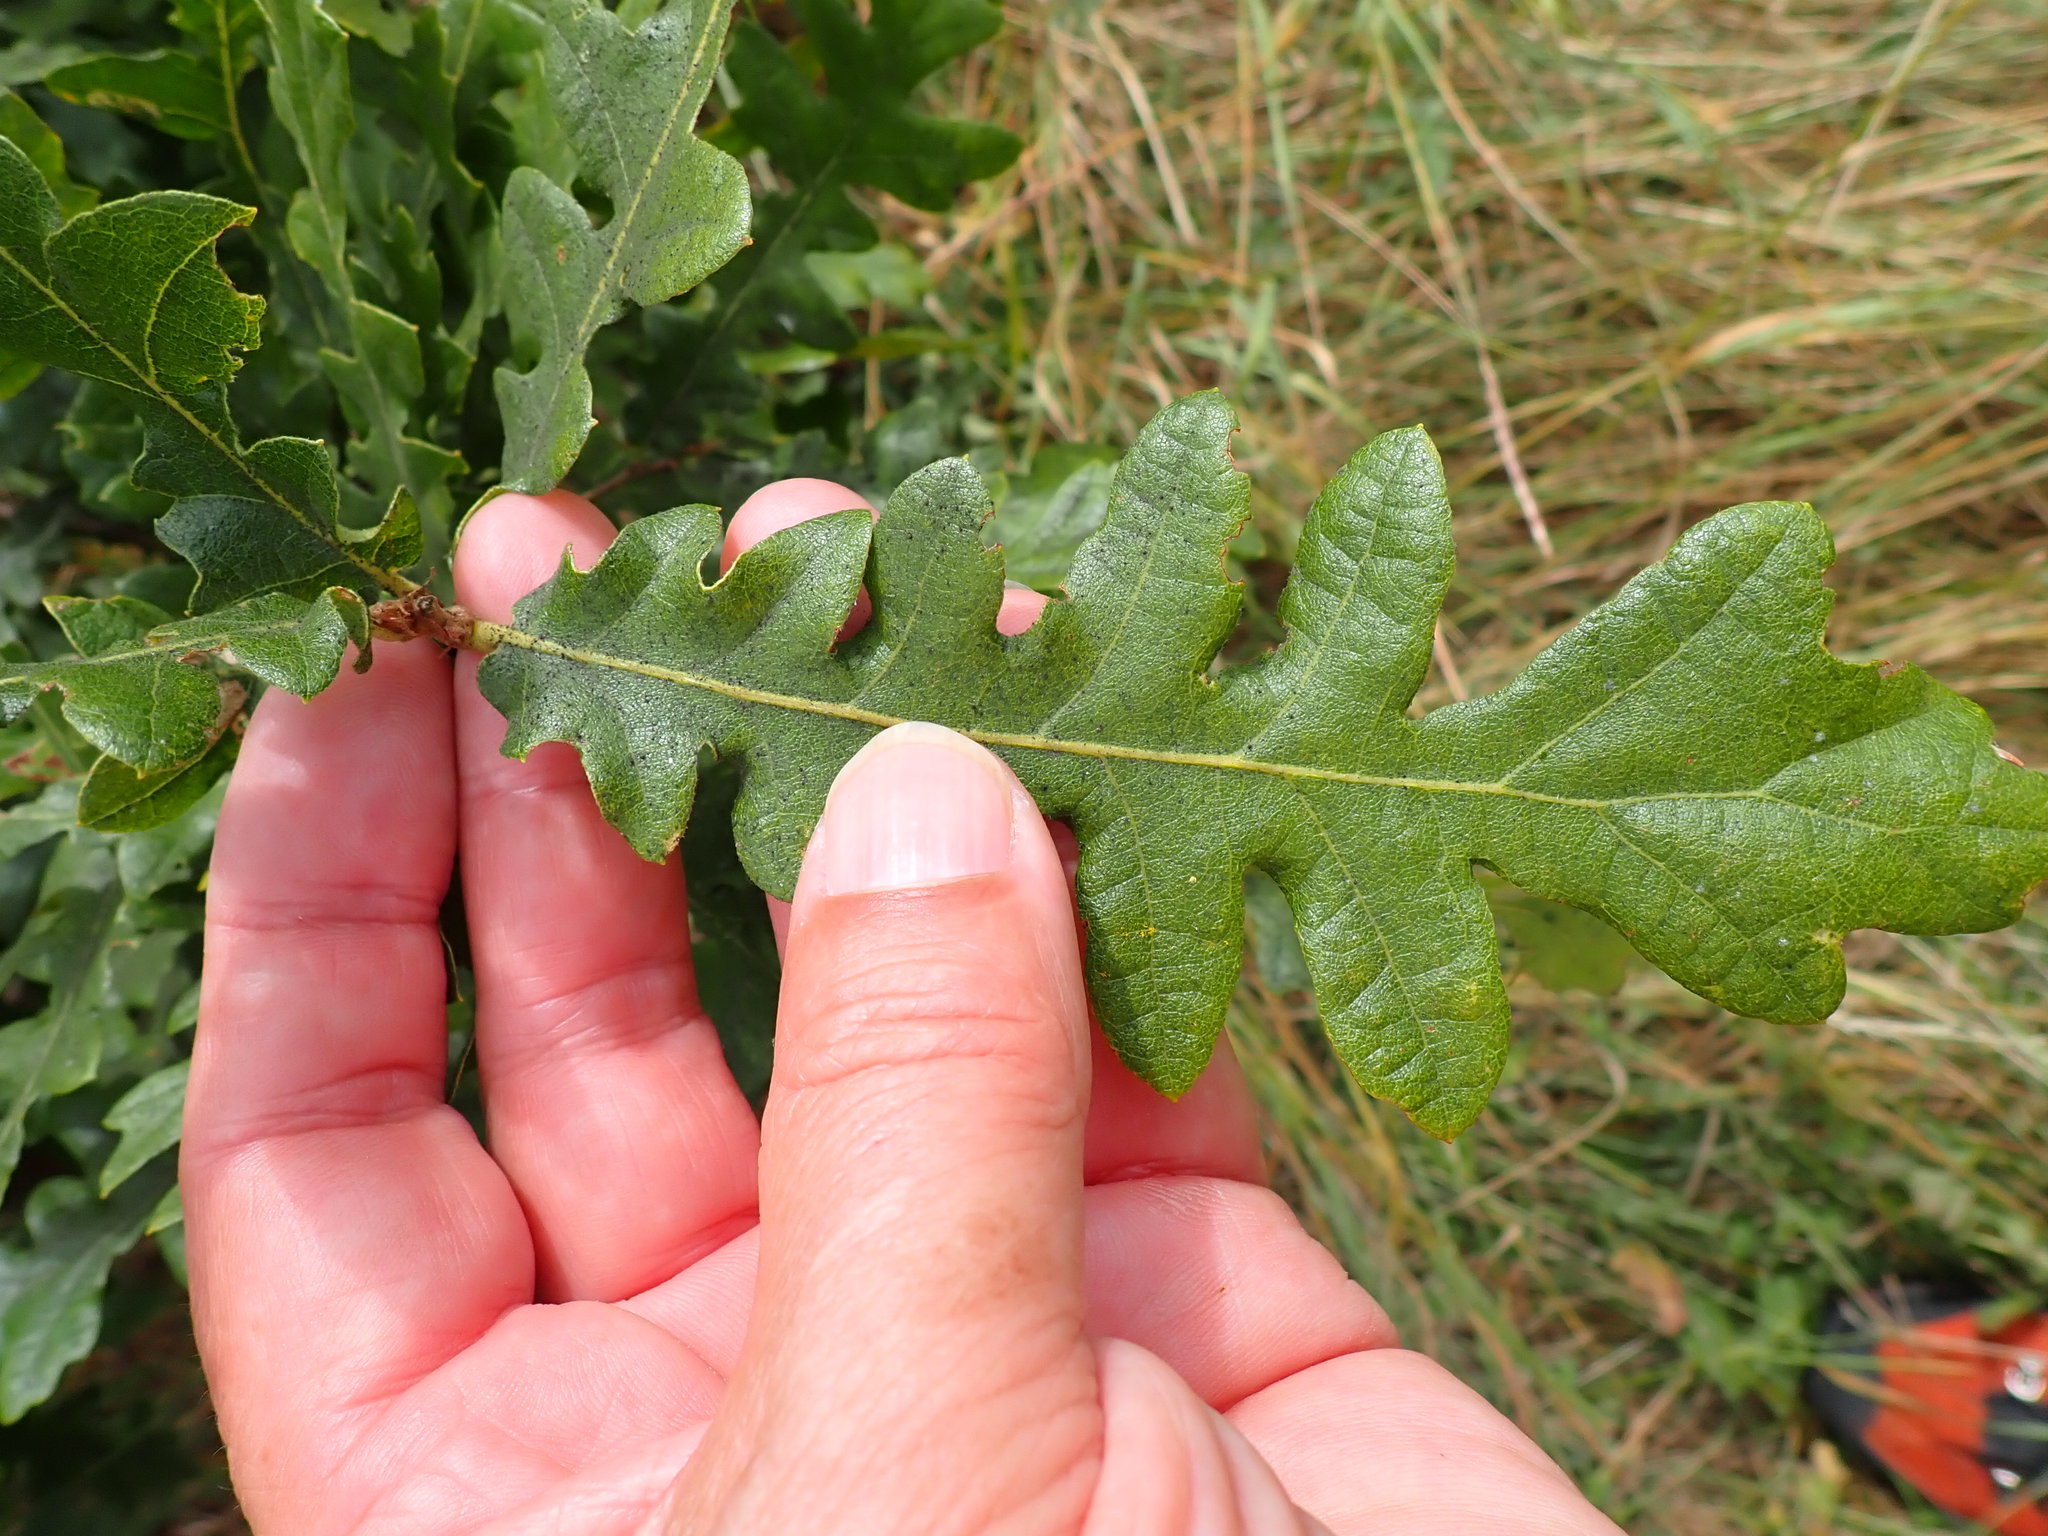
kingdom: Plantae
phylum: Tracheophyta
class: Magnoliopsida
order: Fagales
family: Fagaceae
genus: Quercus
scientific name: Quercus cerris
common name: Turkey oak
